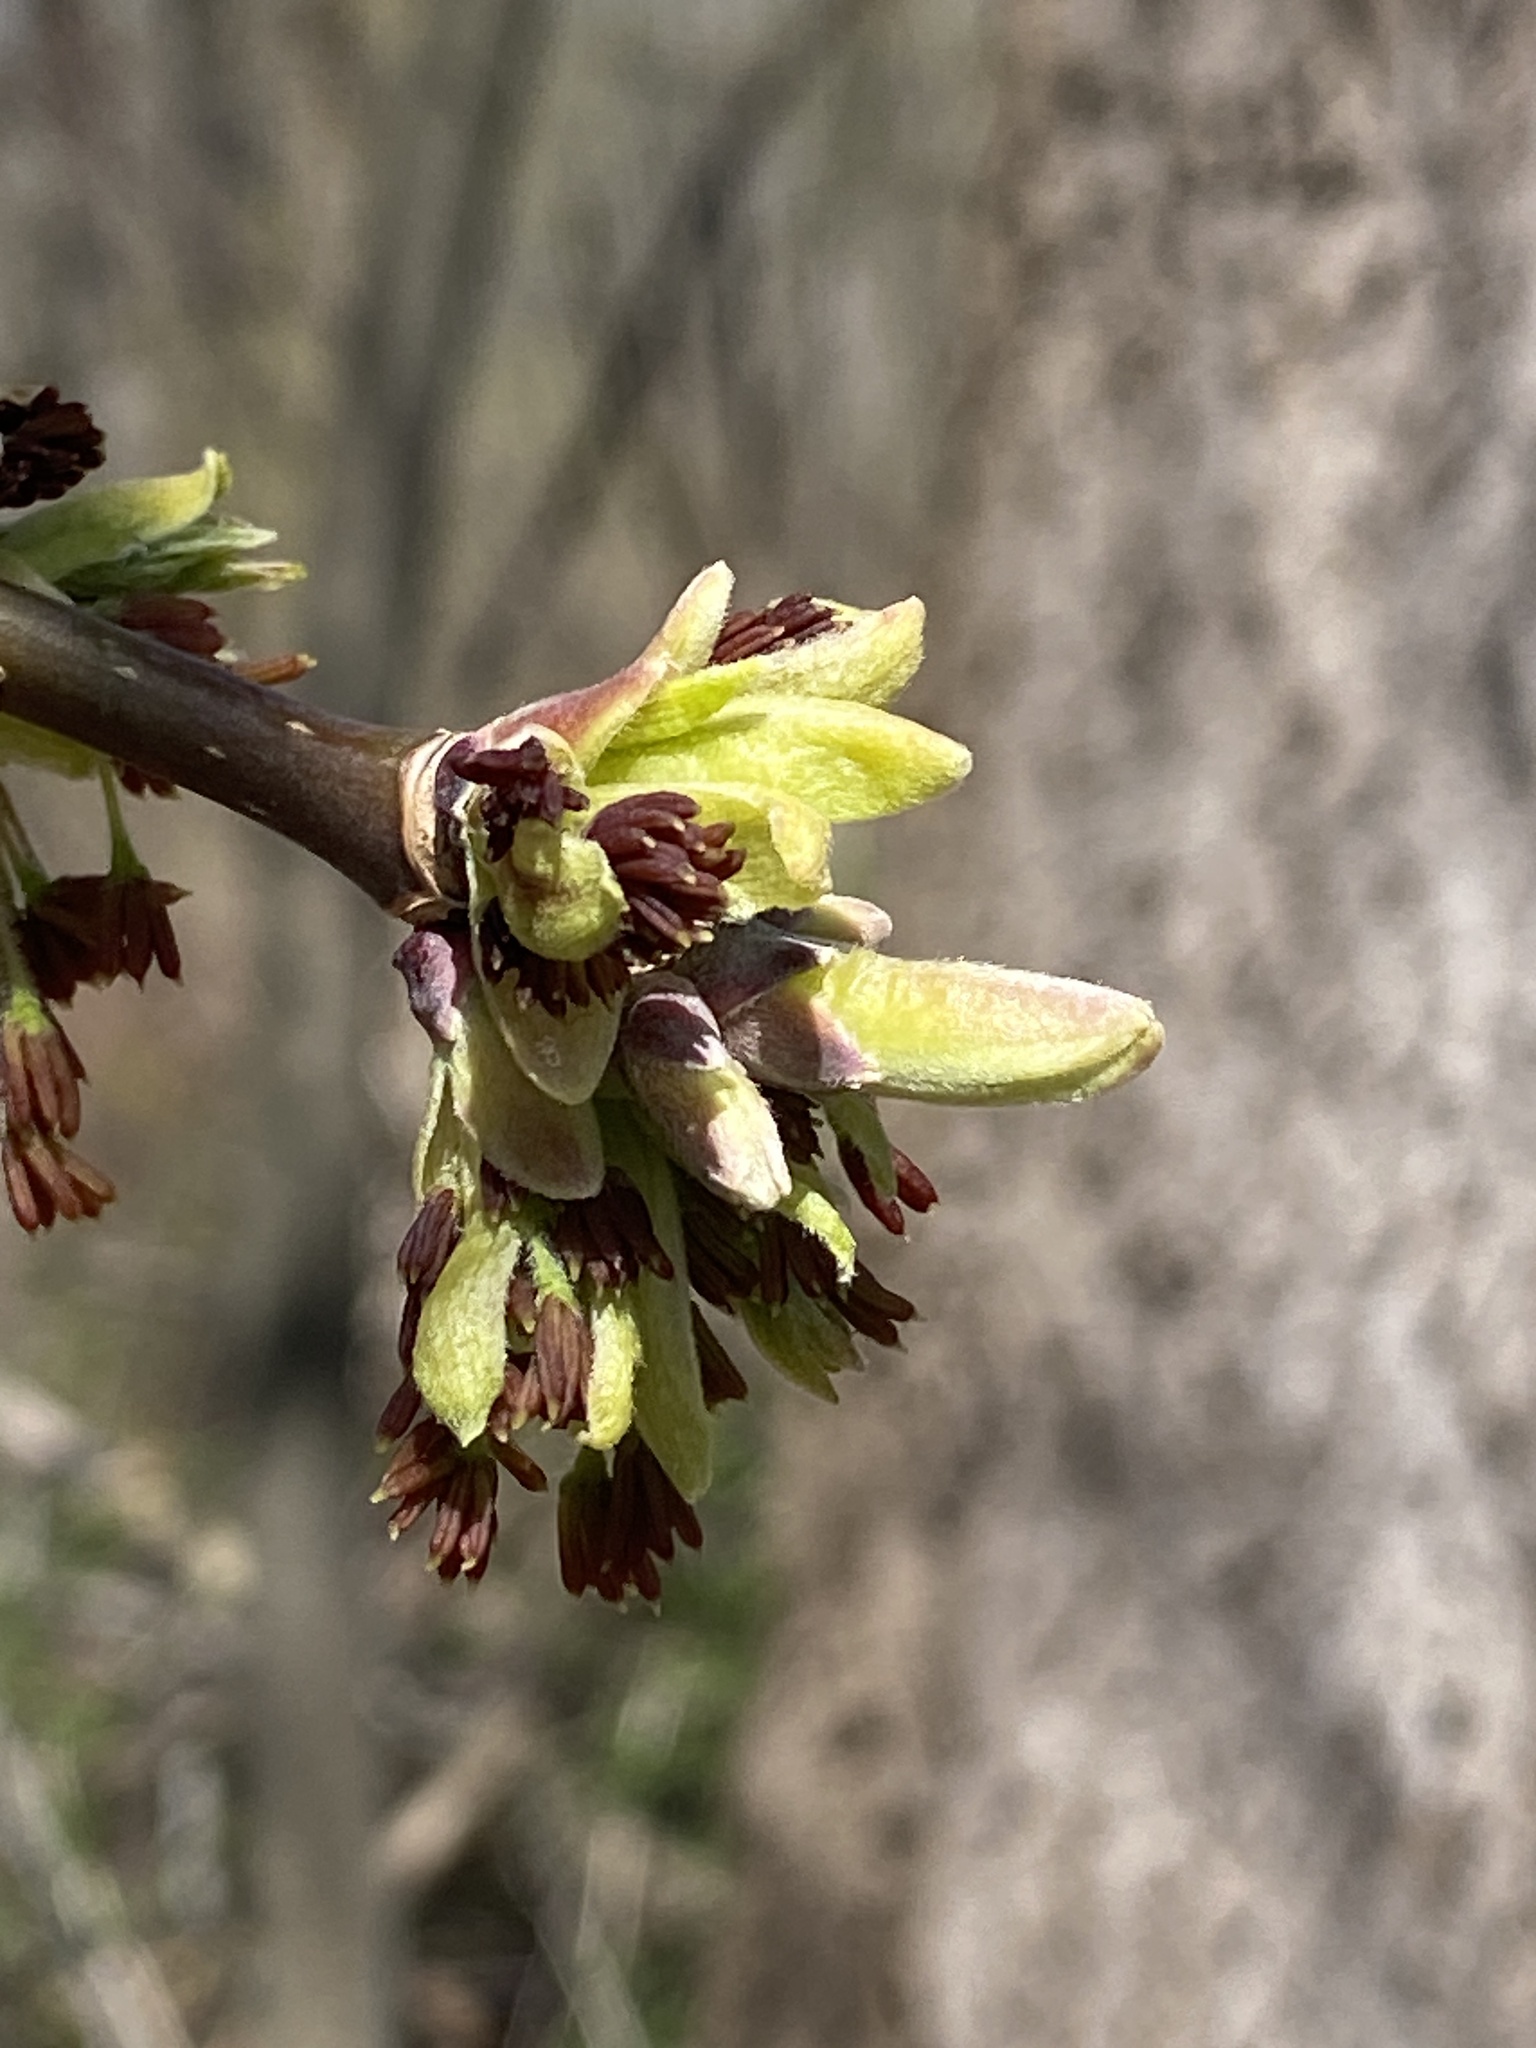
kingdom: Plantae
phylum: Tracheophyta
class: Magnoliopsida
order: Sapindales
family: Sapindaceae
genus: Acer
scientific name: Acer negundo
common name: Ashleaf maple
